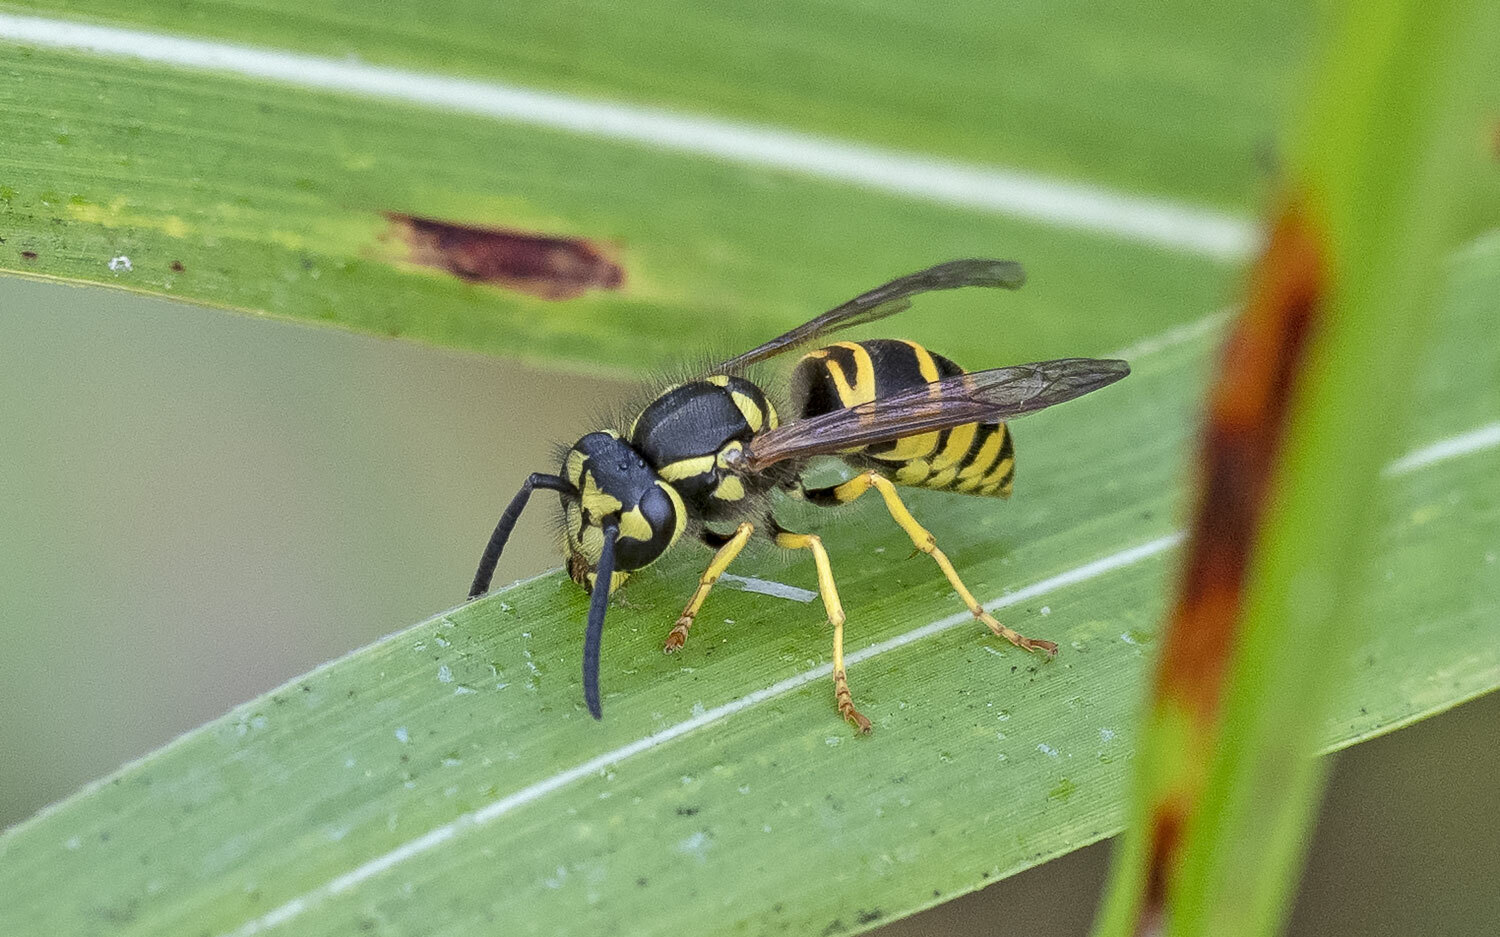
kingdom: Animalia
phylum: Arthropoda
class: Insecta
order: Hymenoptera
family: Vespidae
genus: Vespula
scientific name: Vespula maculifrons
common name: Eastern yellowjacket
